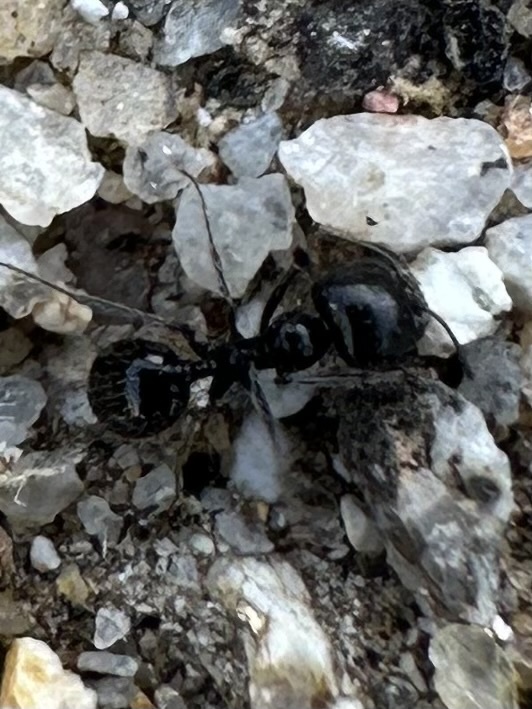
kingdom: Animalia
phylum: Arthropoda
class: Insecta
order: Hymenoptera
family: Formicidae
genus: Messor
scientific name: Messor pergandei
